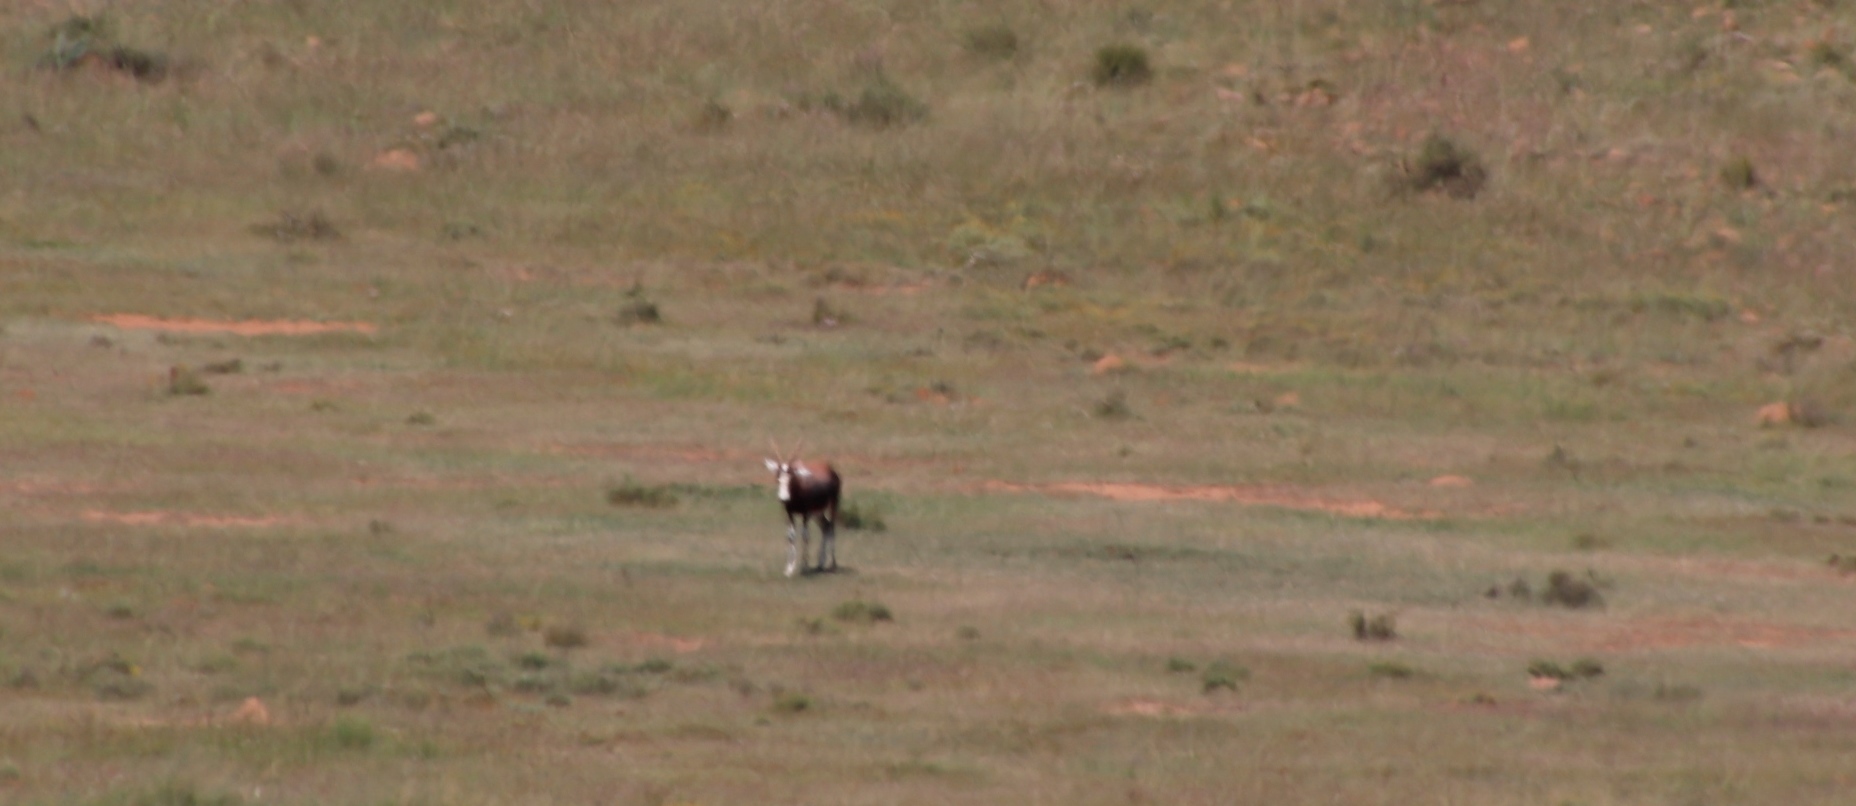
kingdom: Animalia
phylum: Chordata
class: Mammalia
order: Artiodactyla
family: Bovidae
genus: Damaliscus
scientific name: Damaliscus pygargus
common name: Bontebok
